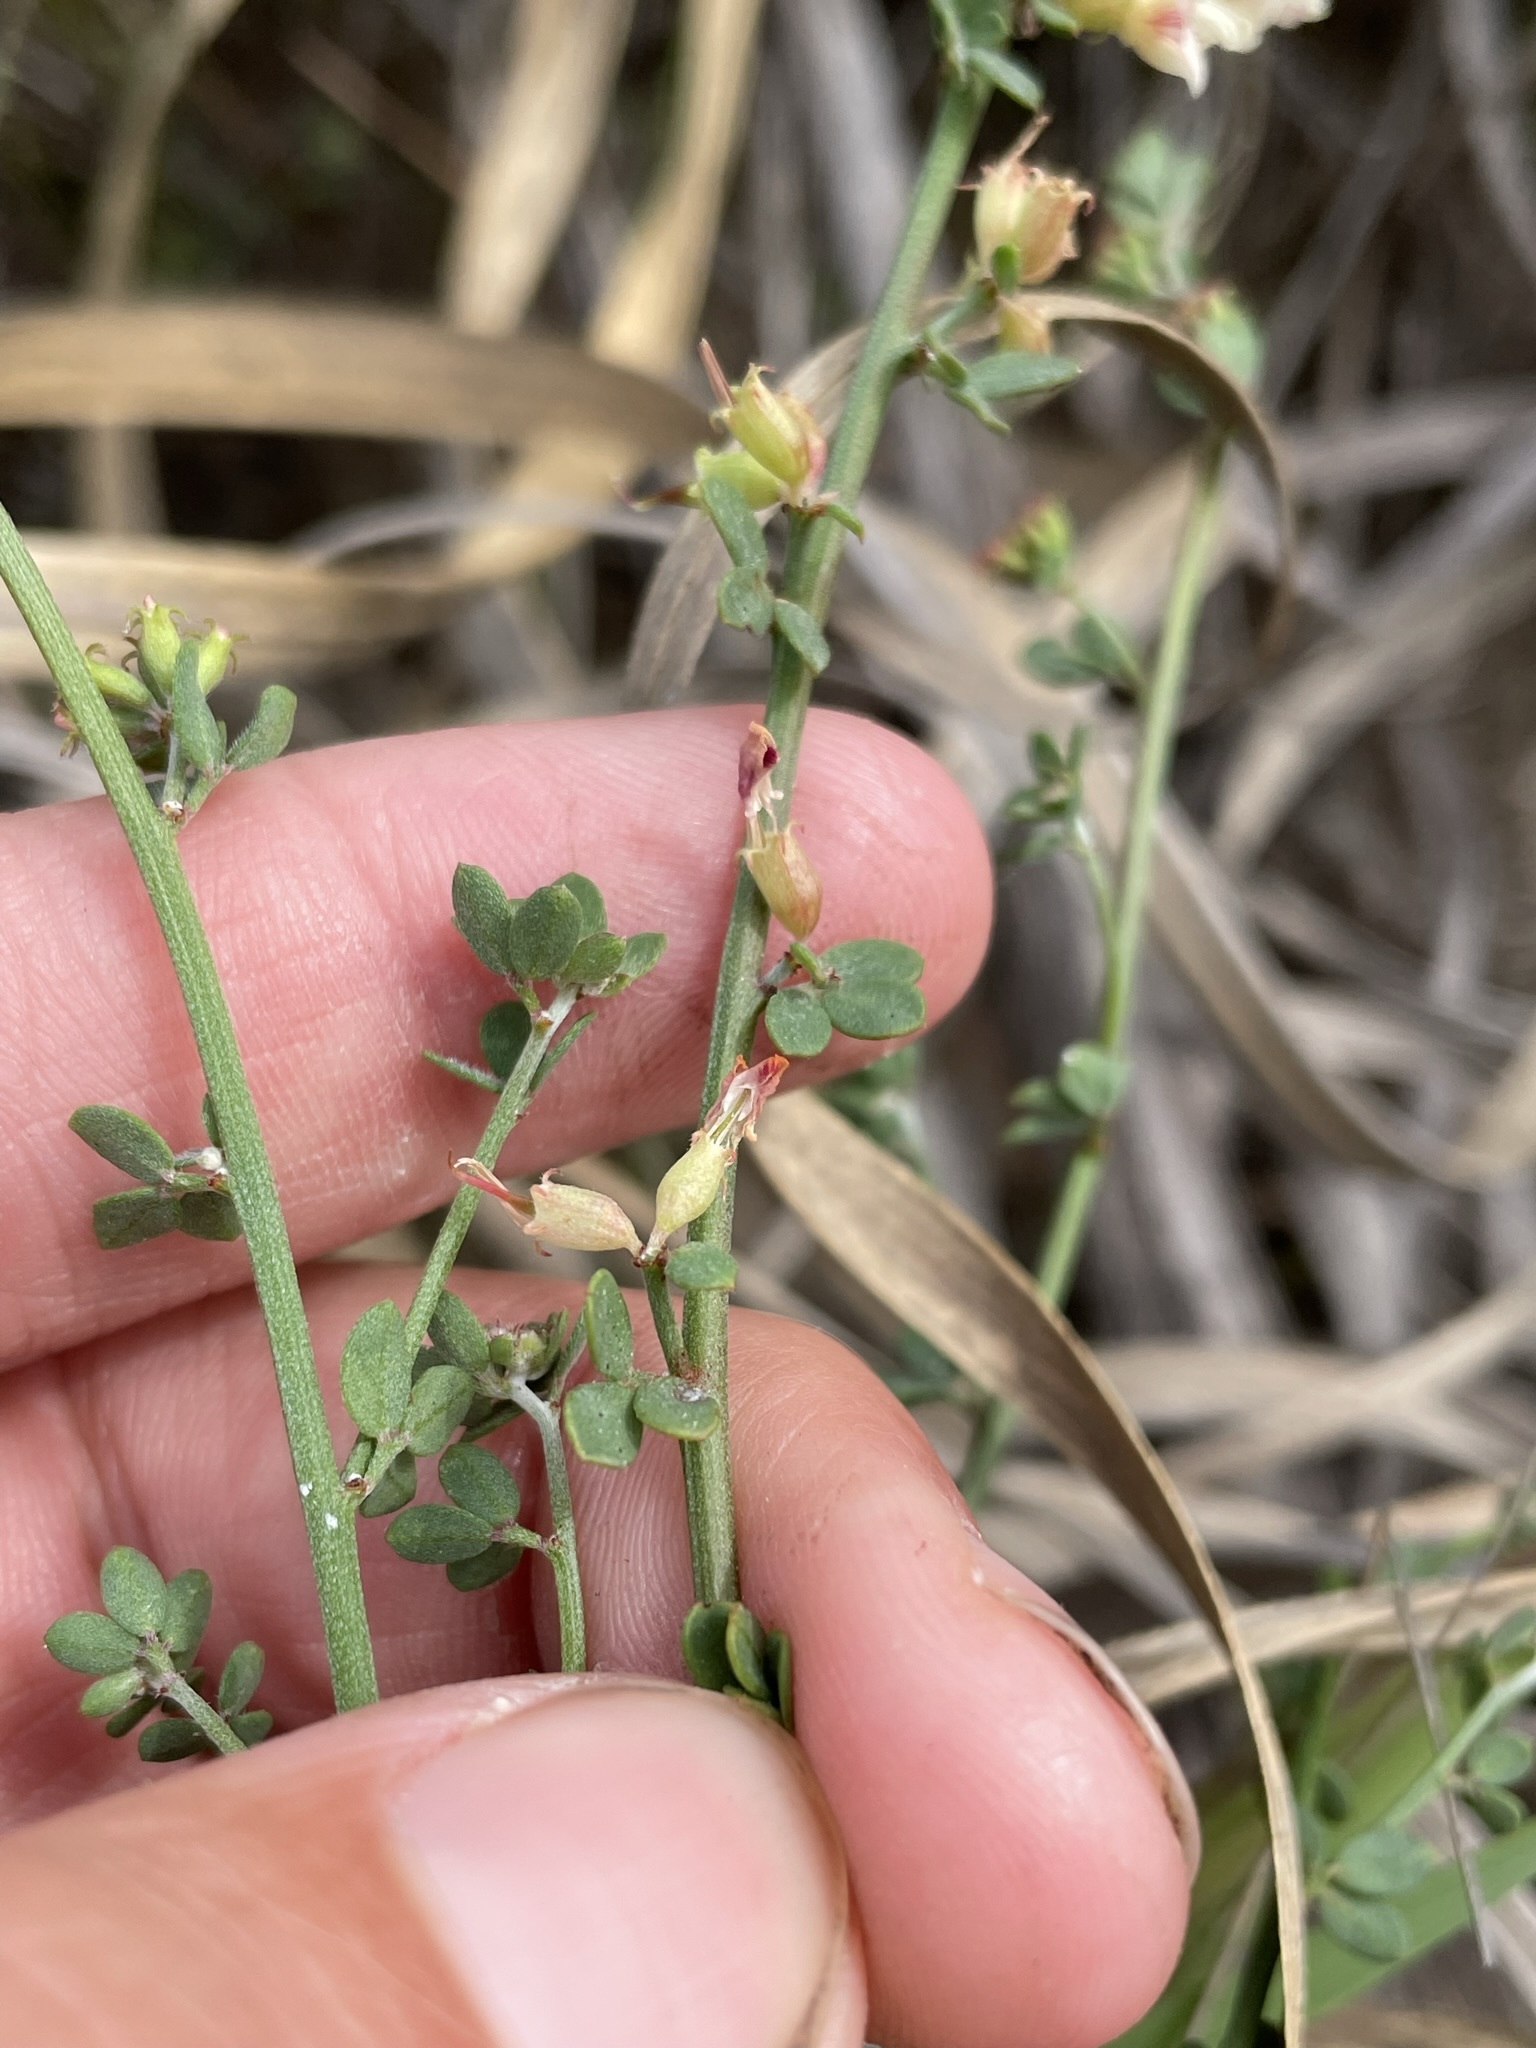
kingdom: Plantae
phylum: Tracheophyta
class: Magnoliopsida
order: Fabales
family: Fabaceae
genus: Acmispon
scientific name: Acmispon cytisoides
